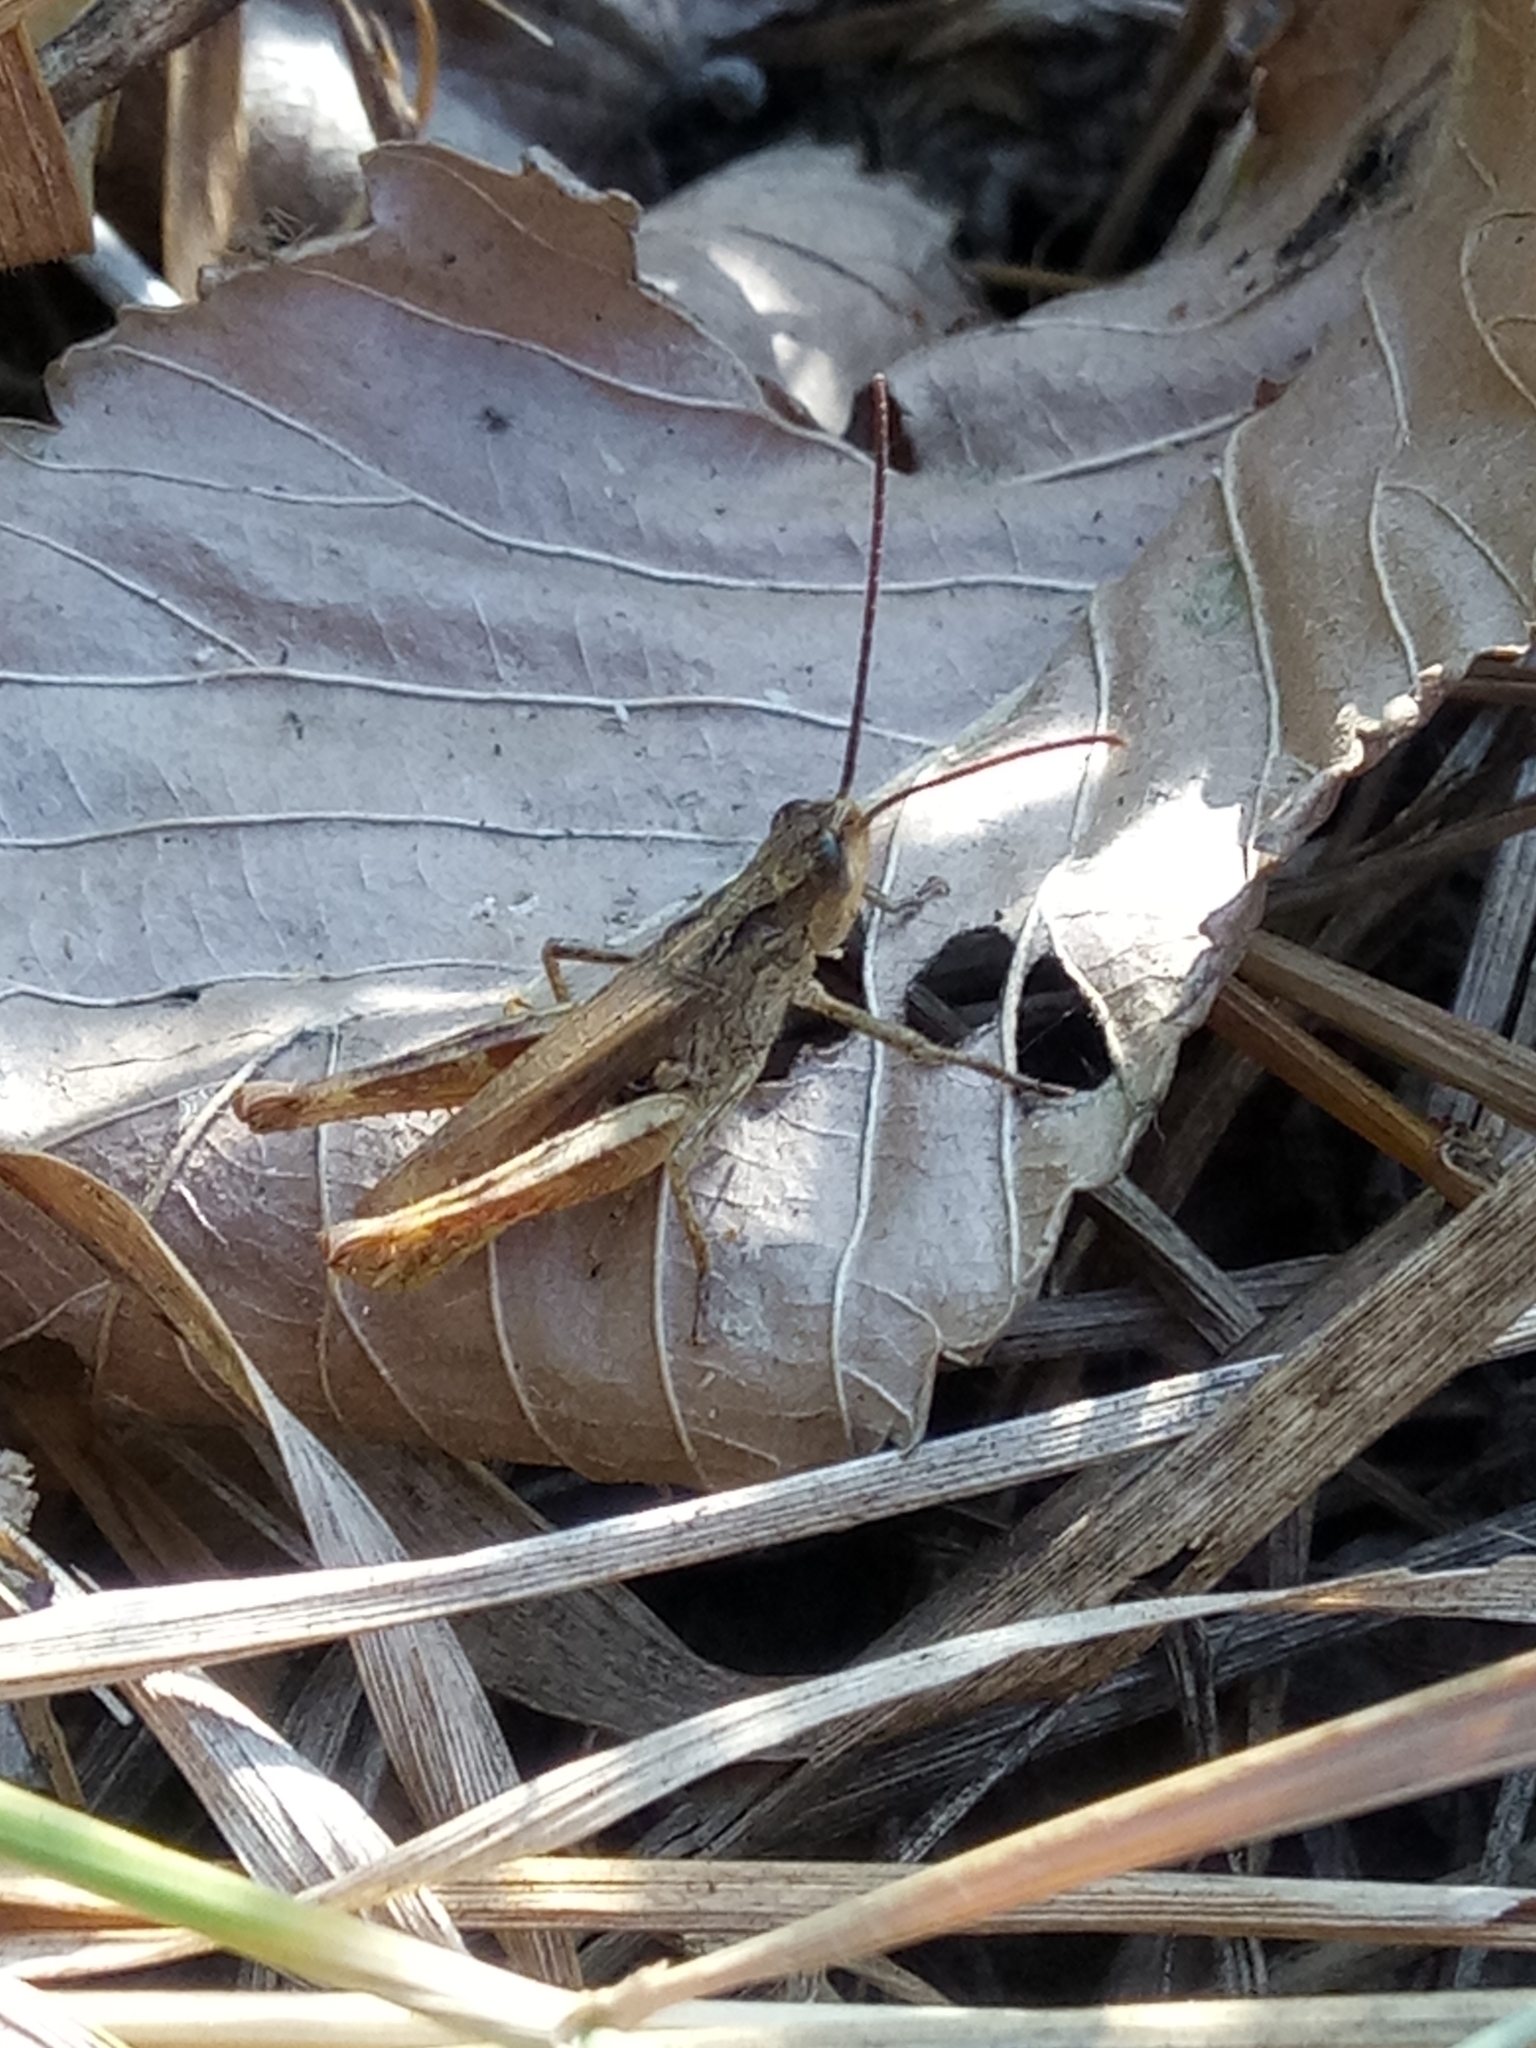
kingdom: Animalia
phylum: Arthropoda
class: Insecta
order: Orthoptera
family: Acrididae
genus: Chorthippus
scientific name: Chorthippus apricarius
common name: Upland field grasshopper
